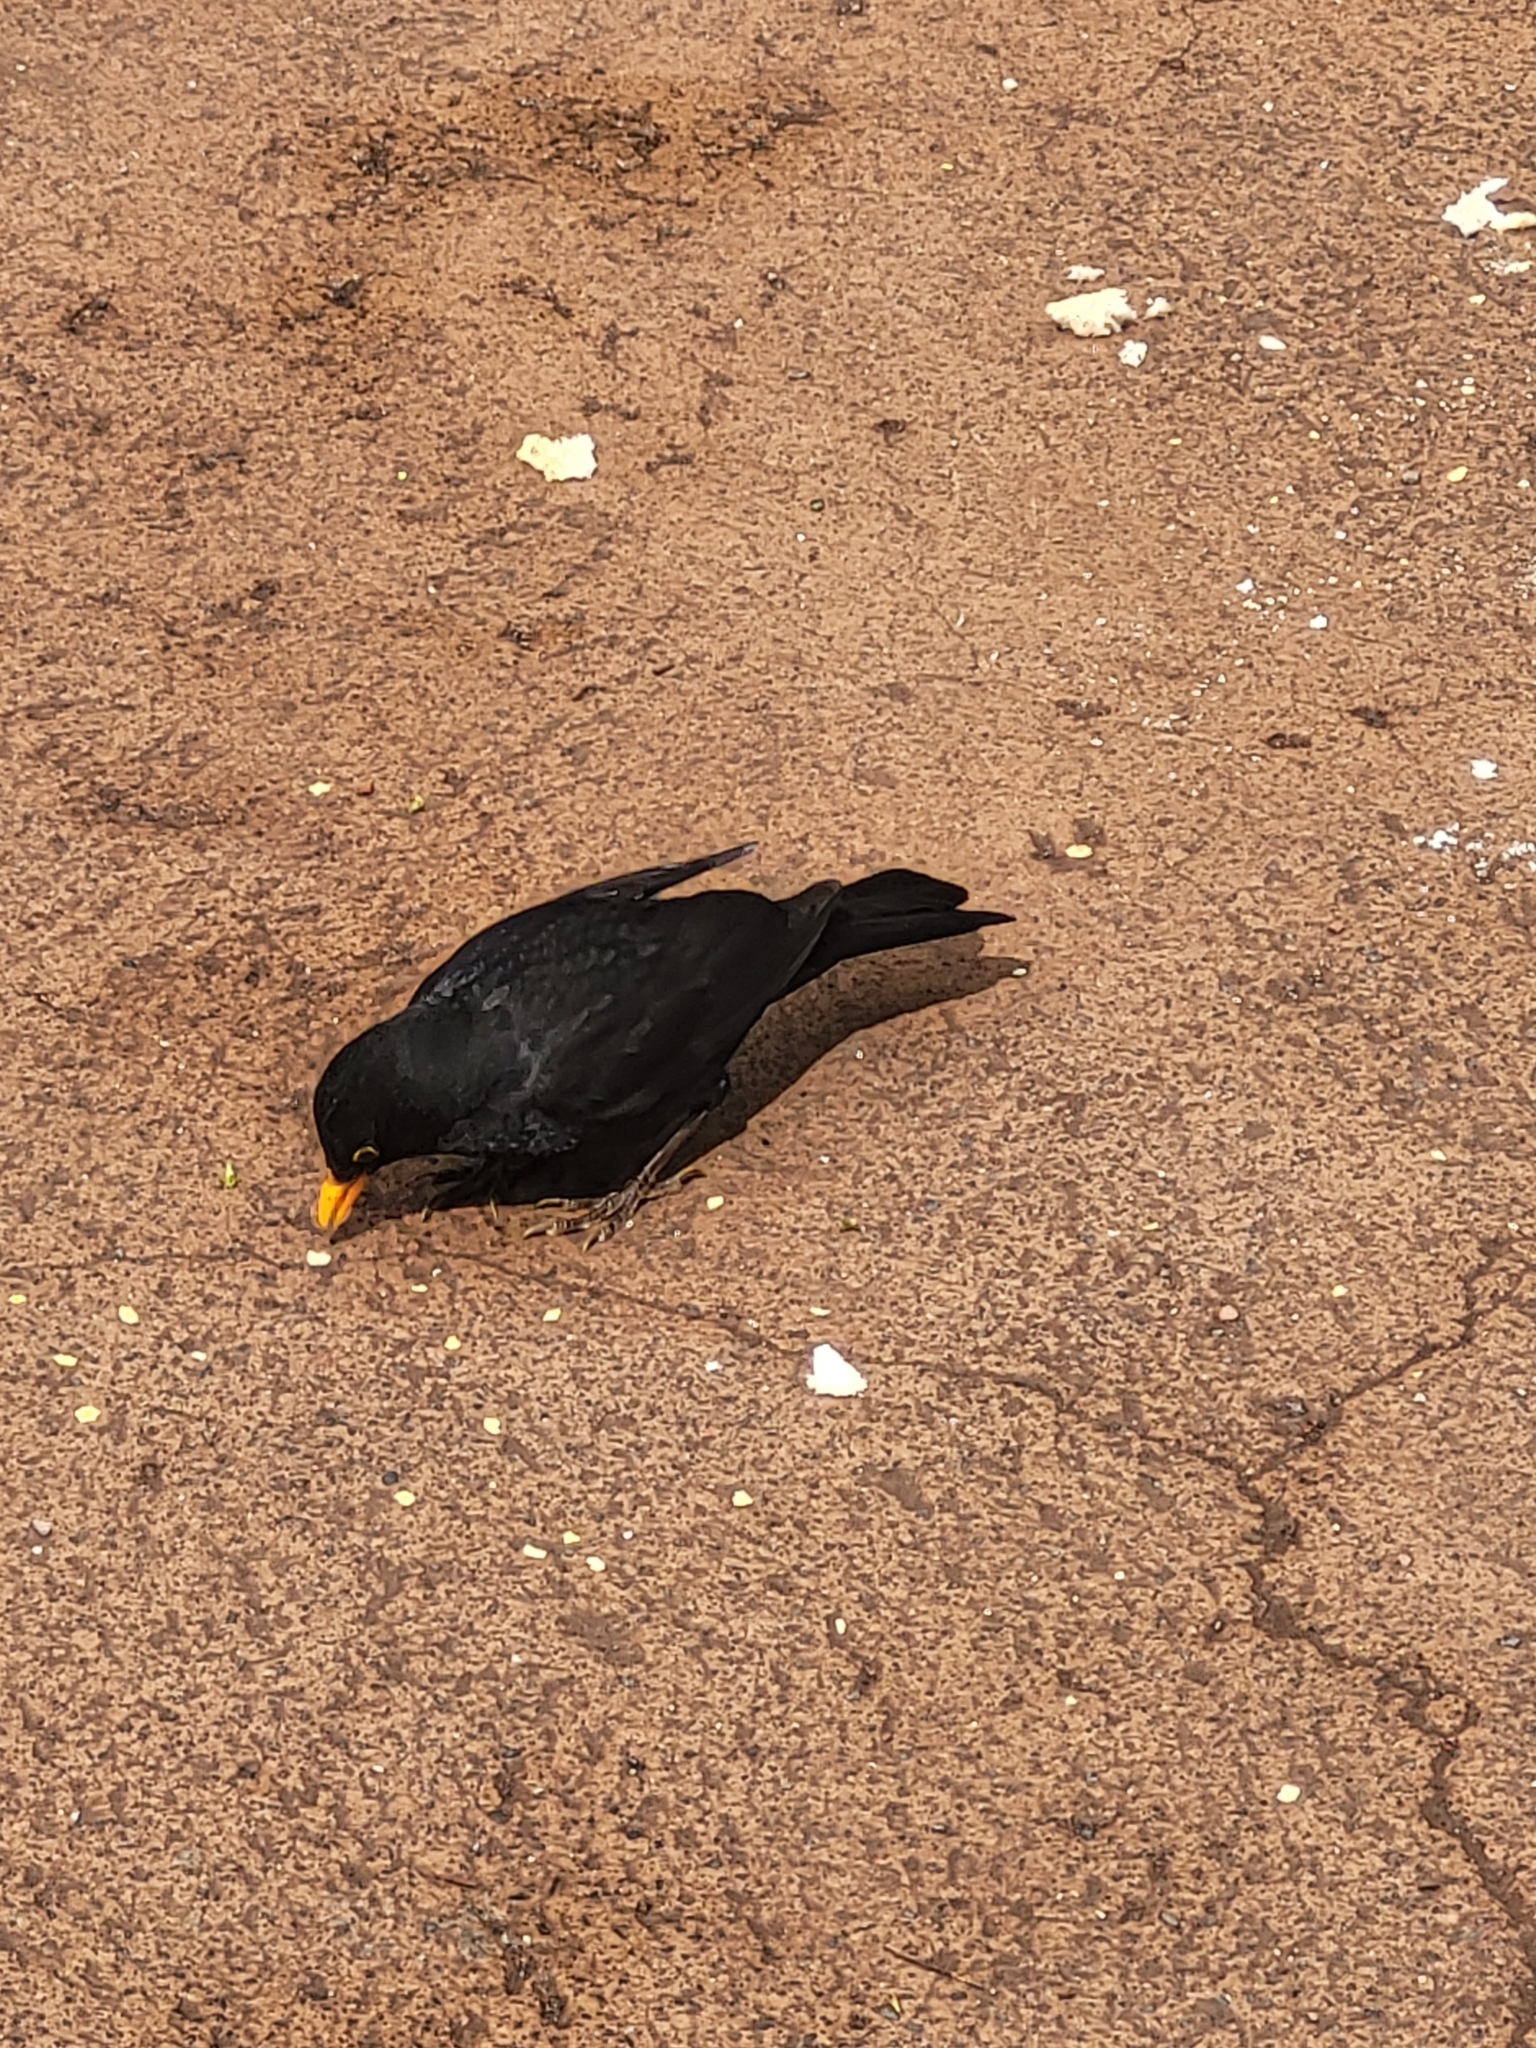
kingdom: Animalia
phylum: Chordata
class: Aves
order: Passeriformes
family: Turdidae
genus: Turdus
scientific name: Turdus merula
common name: Common blackbird
